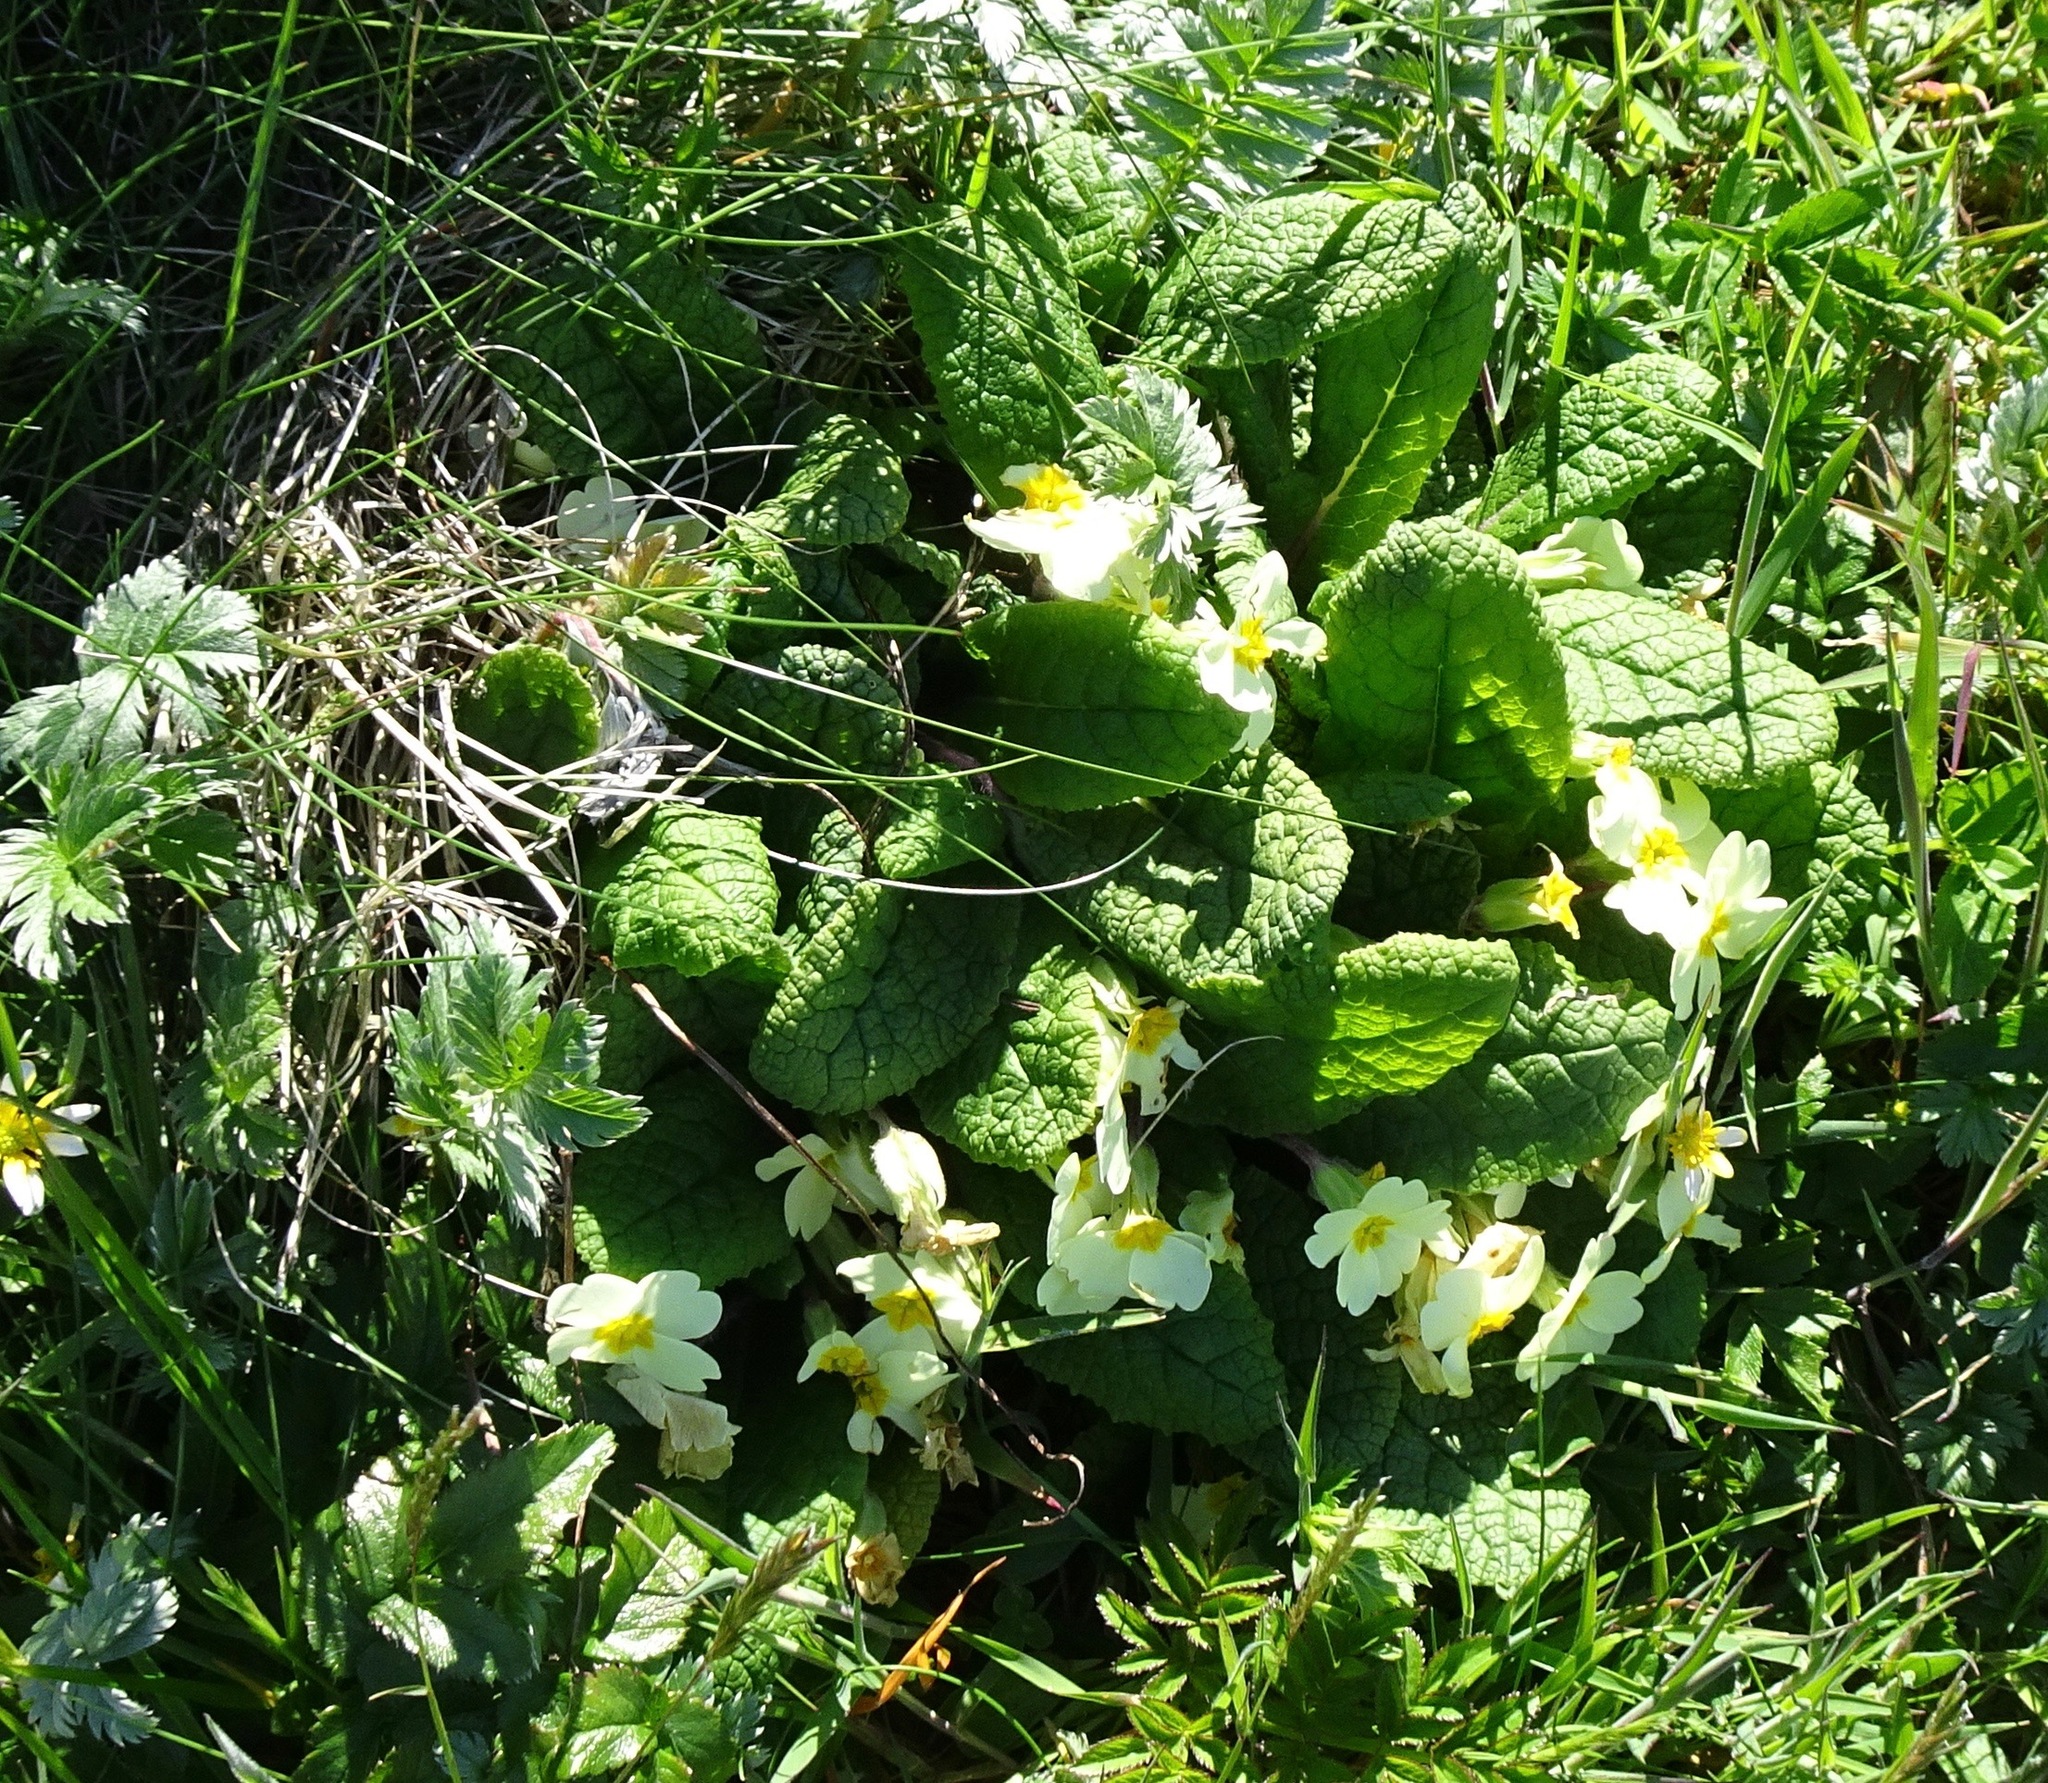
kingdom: Plantae
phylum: Tracheophyta
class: Magnoliopsida
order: Ericales
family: Primulaceae
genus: Primula
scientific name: Primula vulgaris
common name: Primrose
